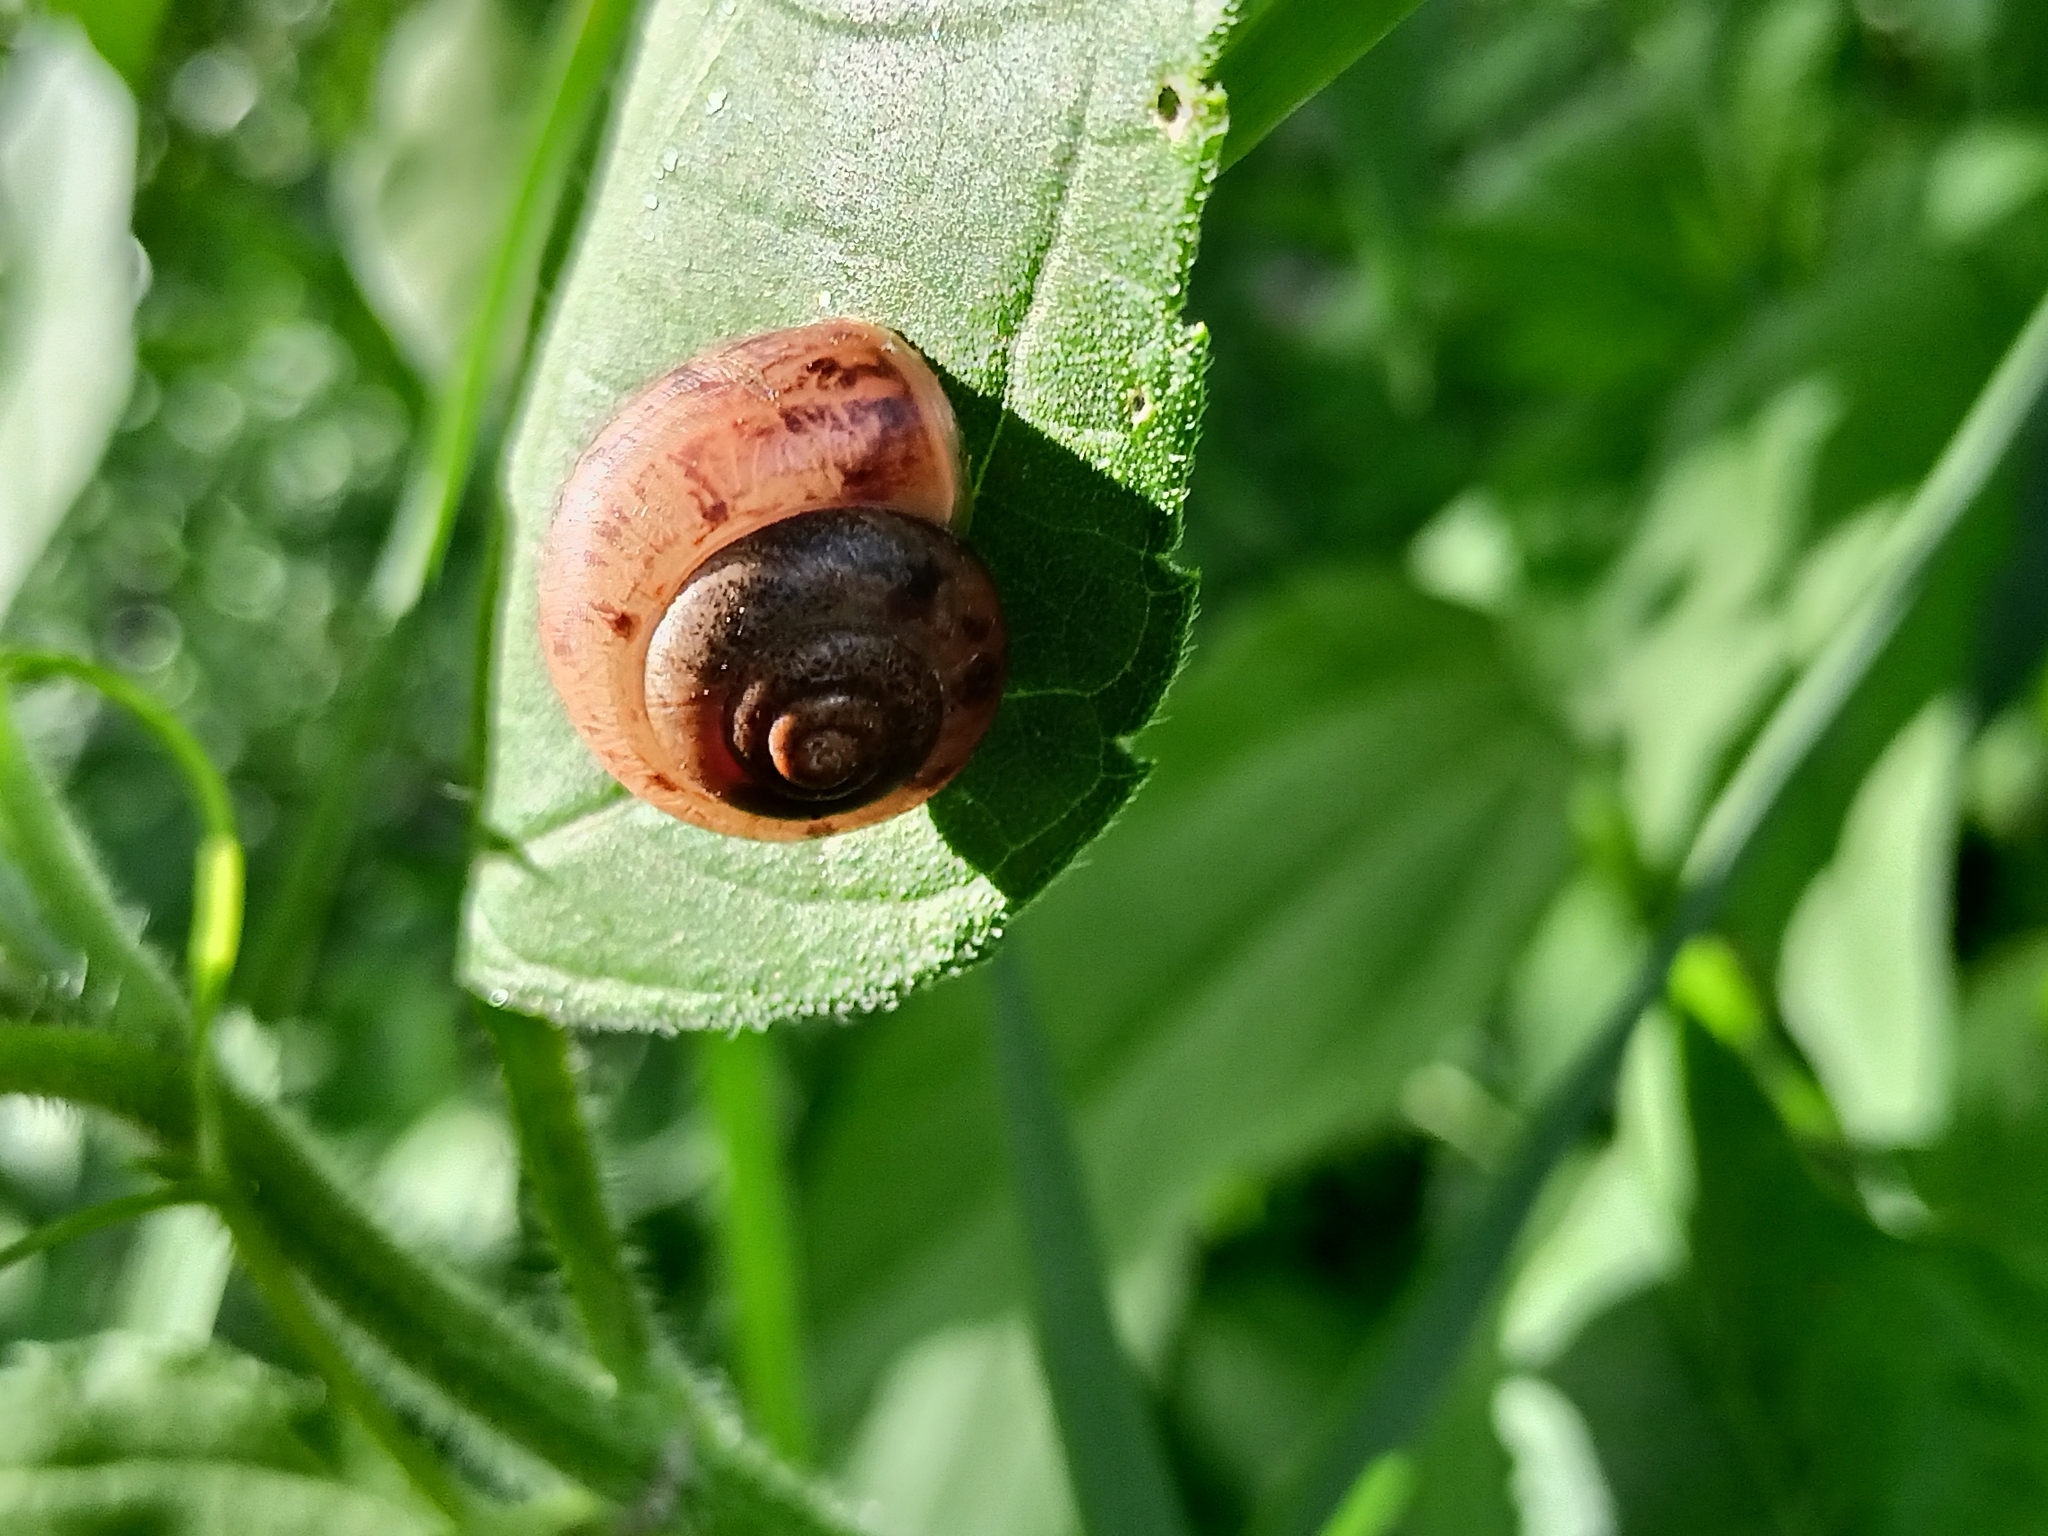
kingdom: Animalia
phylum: Mollusca
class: Gastropoda
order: Stylommatophora
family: Camaenidae
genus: Fruticicola
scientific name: Fruticicola fruticum
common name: Bush snail
